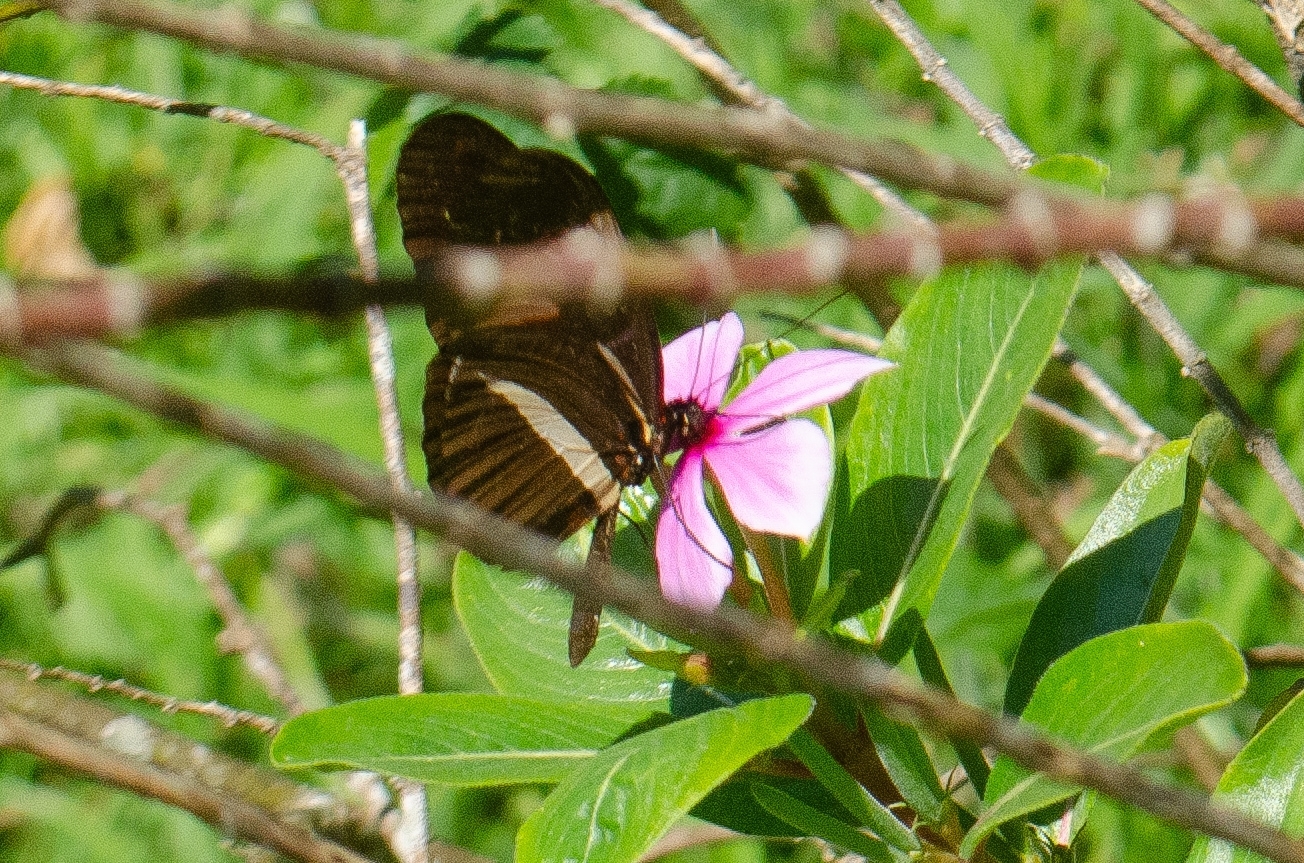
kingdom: Animalia
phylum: Arthropoda
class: Insecta
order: Lepidoptera
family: Nymphalidae
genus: Heliconius
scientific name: Heliconius erato
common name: Common patch longwing
